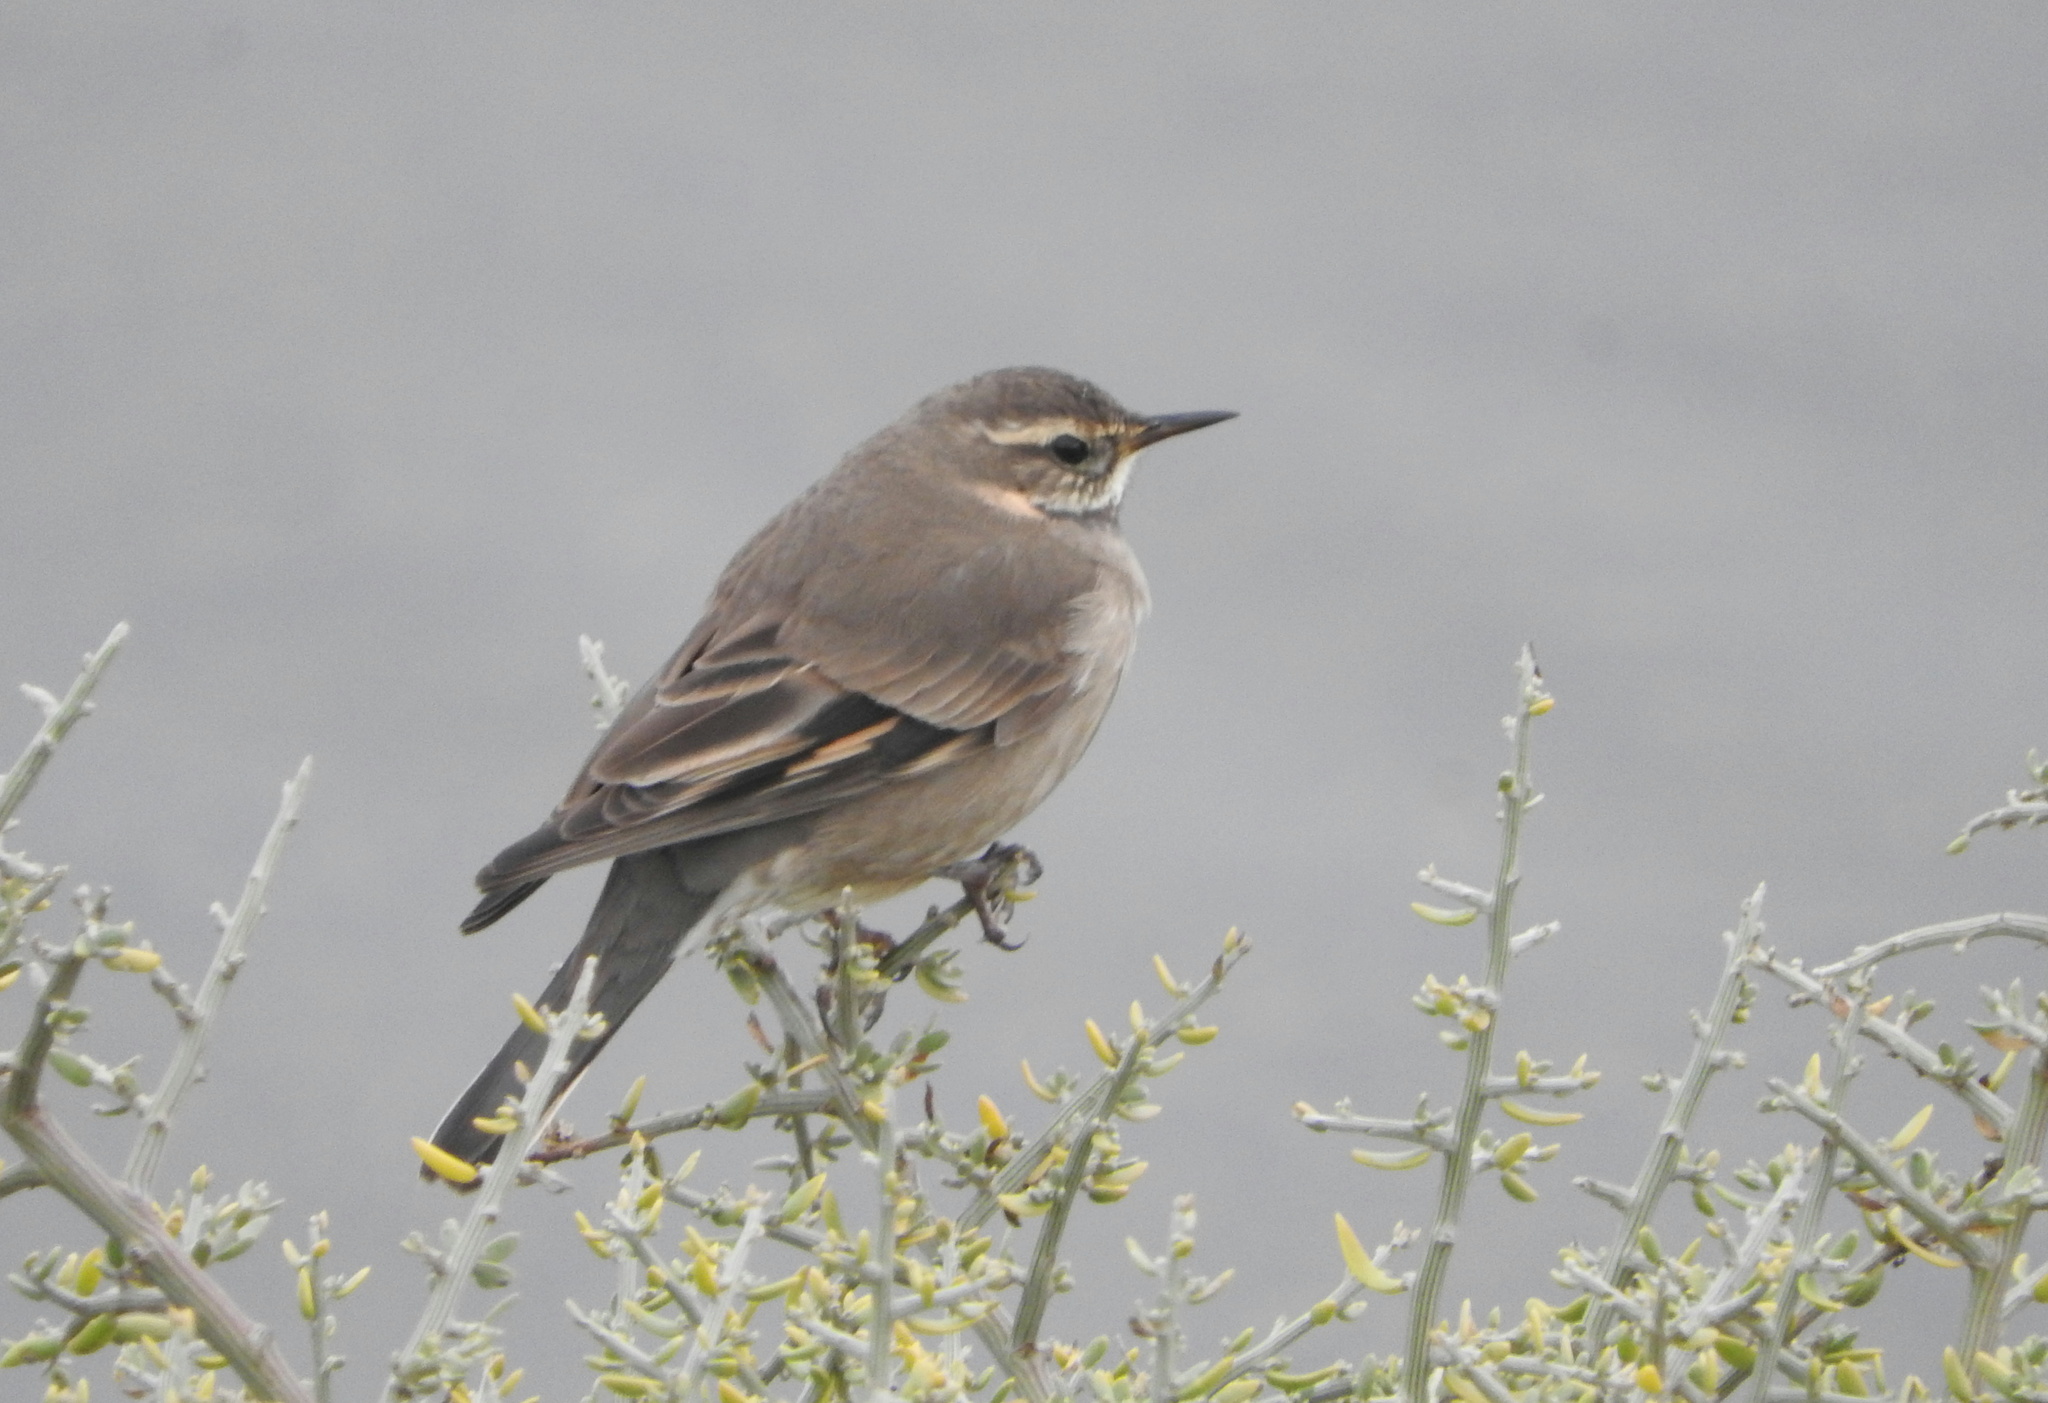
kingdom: Animalia
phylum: Chordata
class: Aves
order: Passeriformes
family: Furnariidae
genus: Cinclodes
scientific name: Cinclodes fuscus
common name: Buff-winged cinclodes
